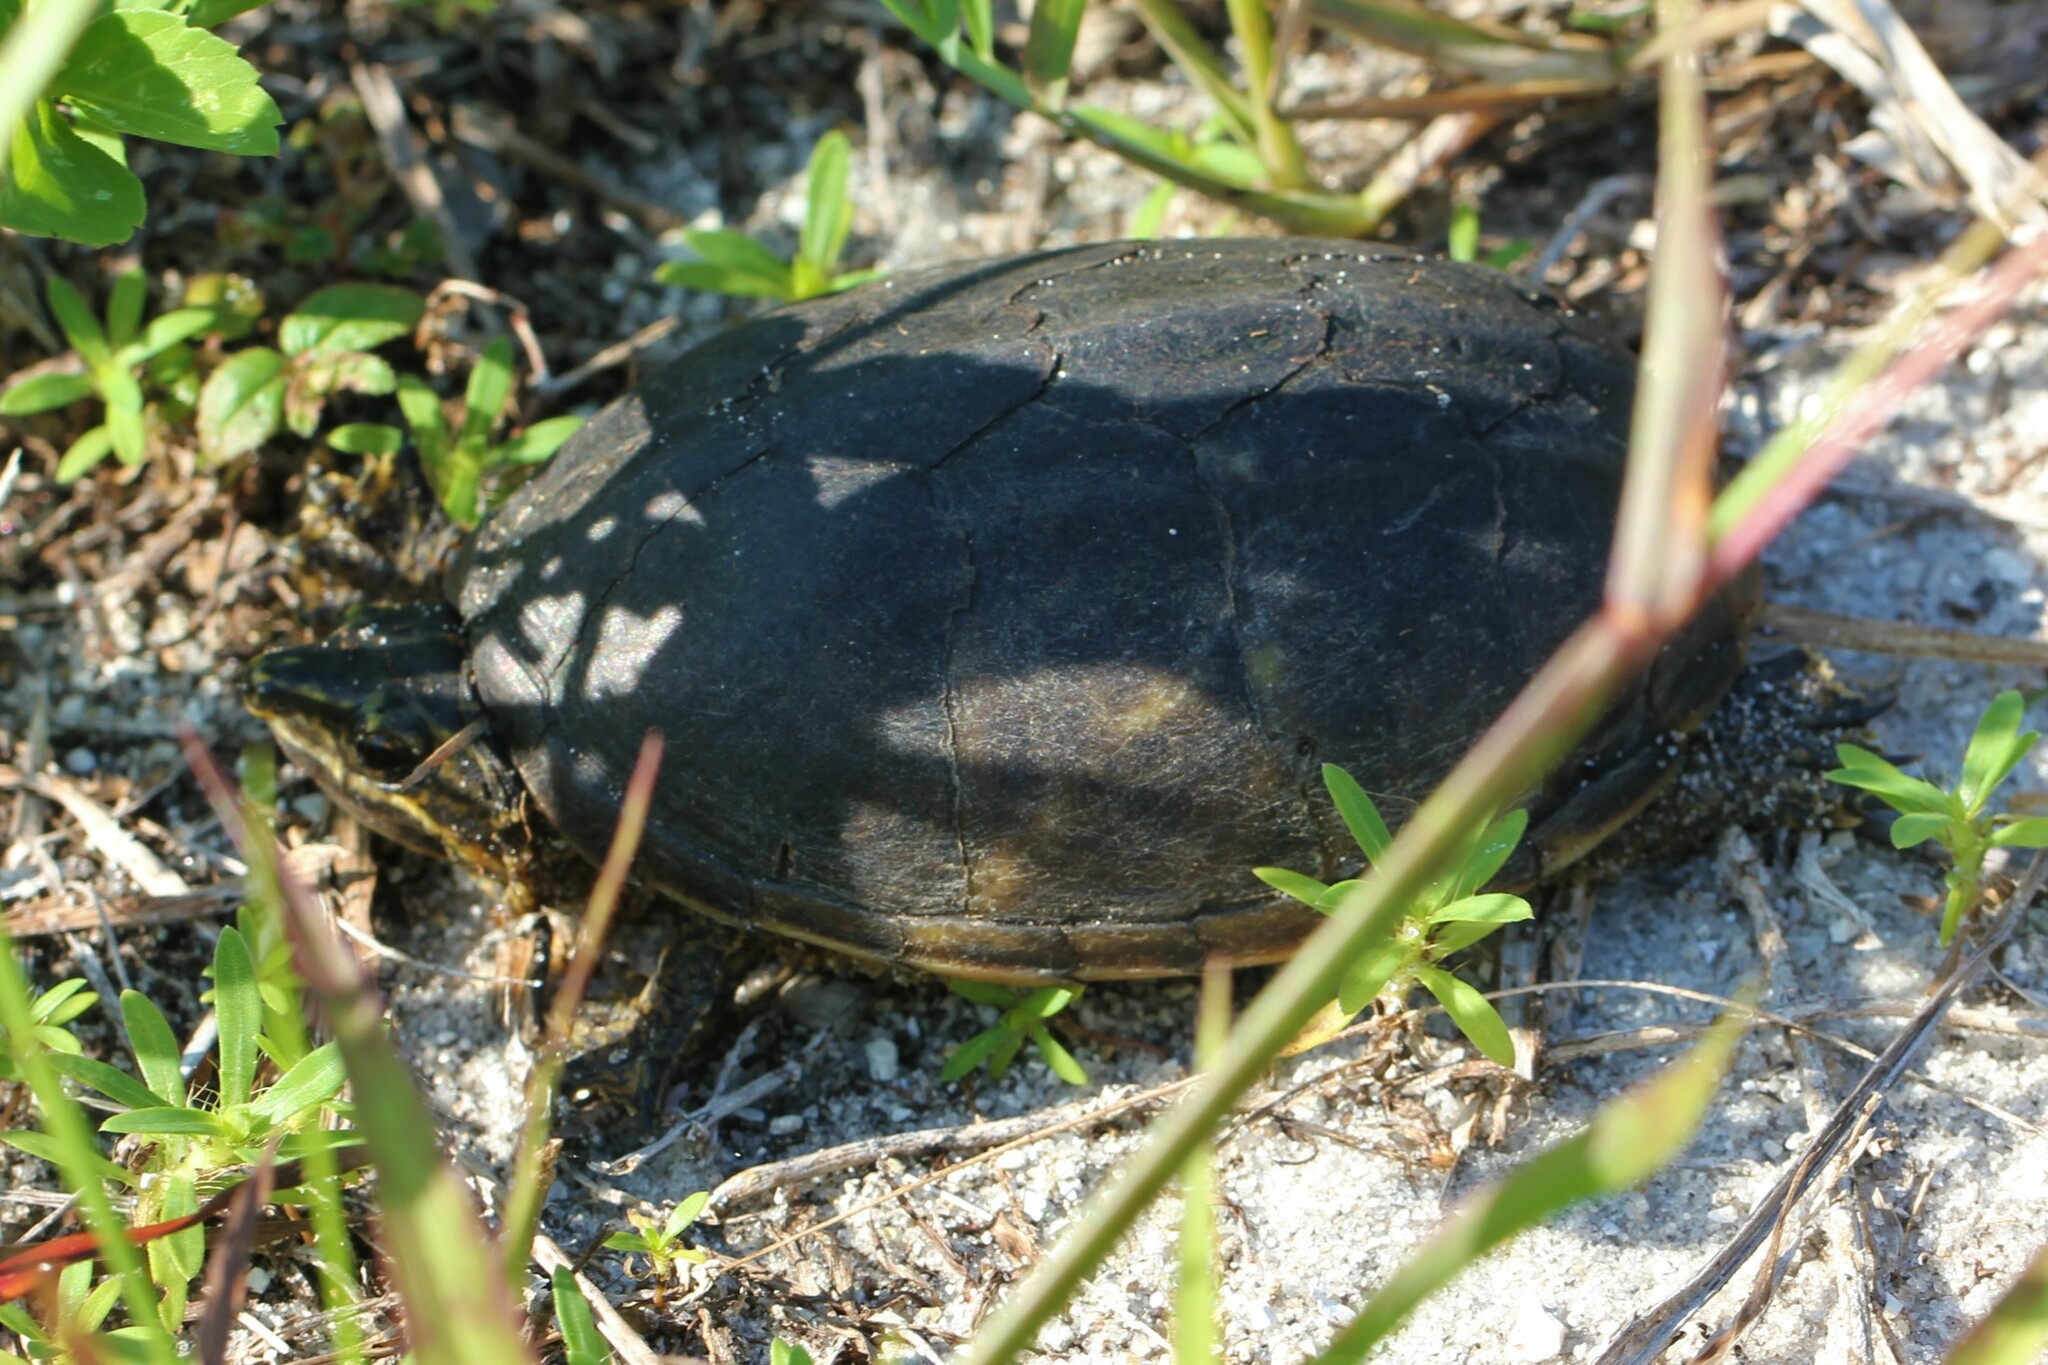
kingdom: Animalia
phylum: Chordata
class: Testudines
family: Kinosternidae
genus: Sternotherus
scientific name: Sternotherus odoratus
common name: Common musk turtle
